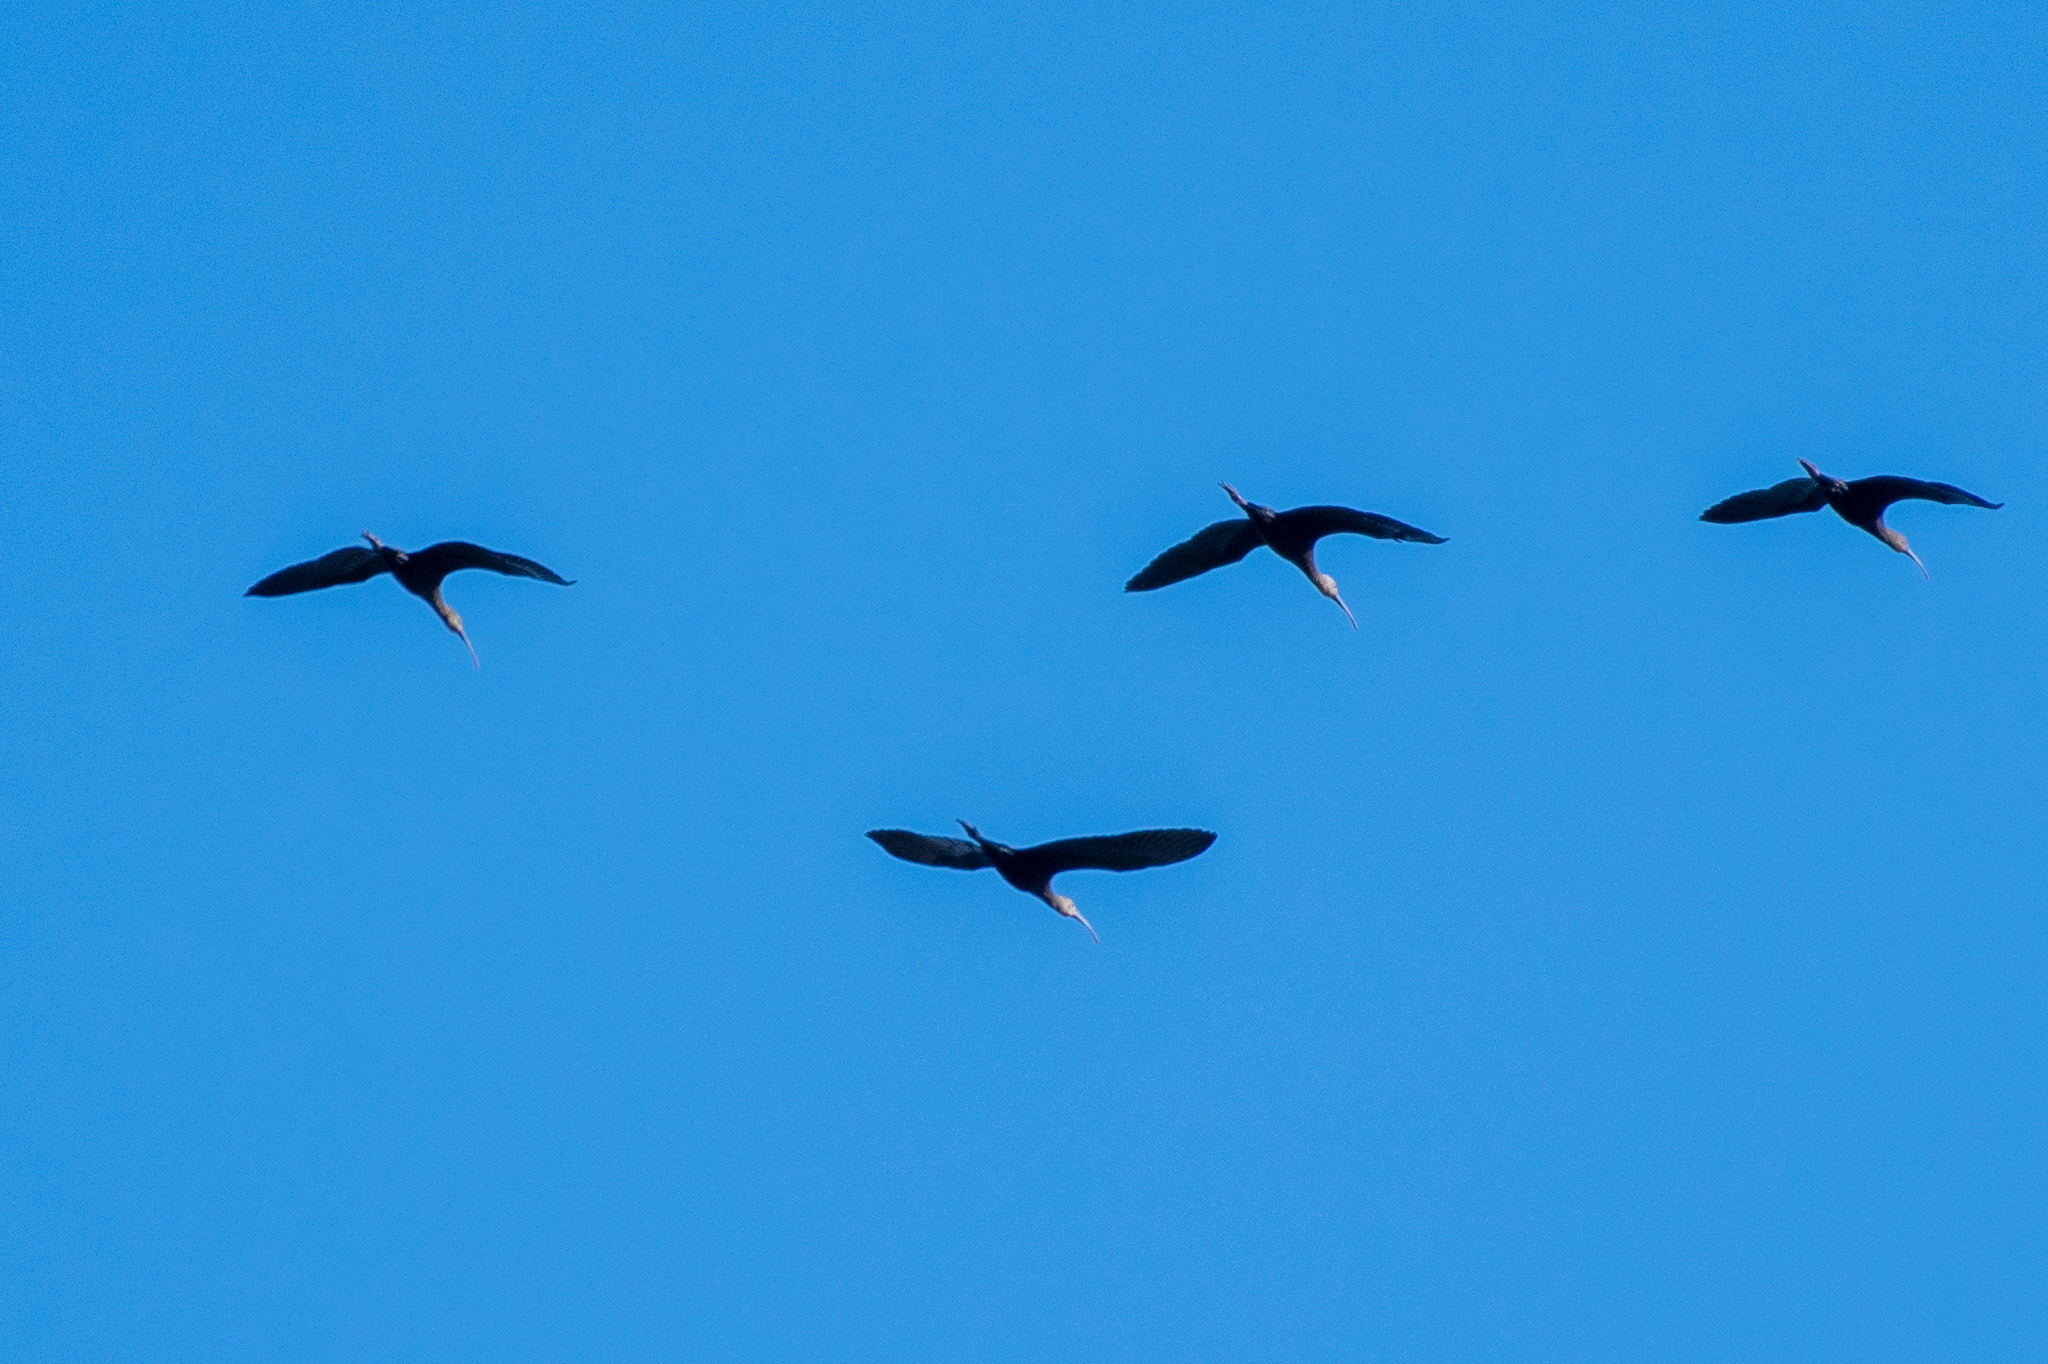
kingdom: Animalia
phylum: Chordata
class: Aves
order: Pelecaniformes
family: Threskiornithidae
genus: Plegadis
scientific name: Plegadis chihi
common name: White-faced ibis
